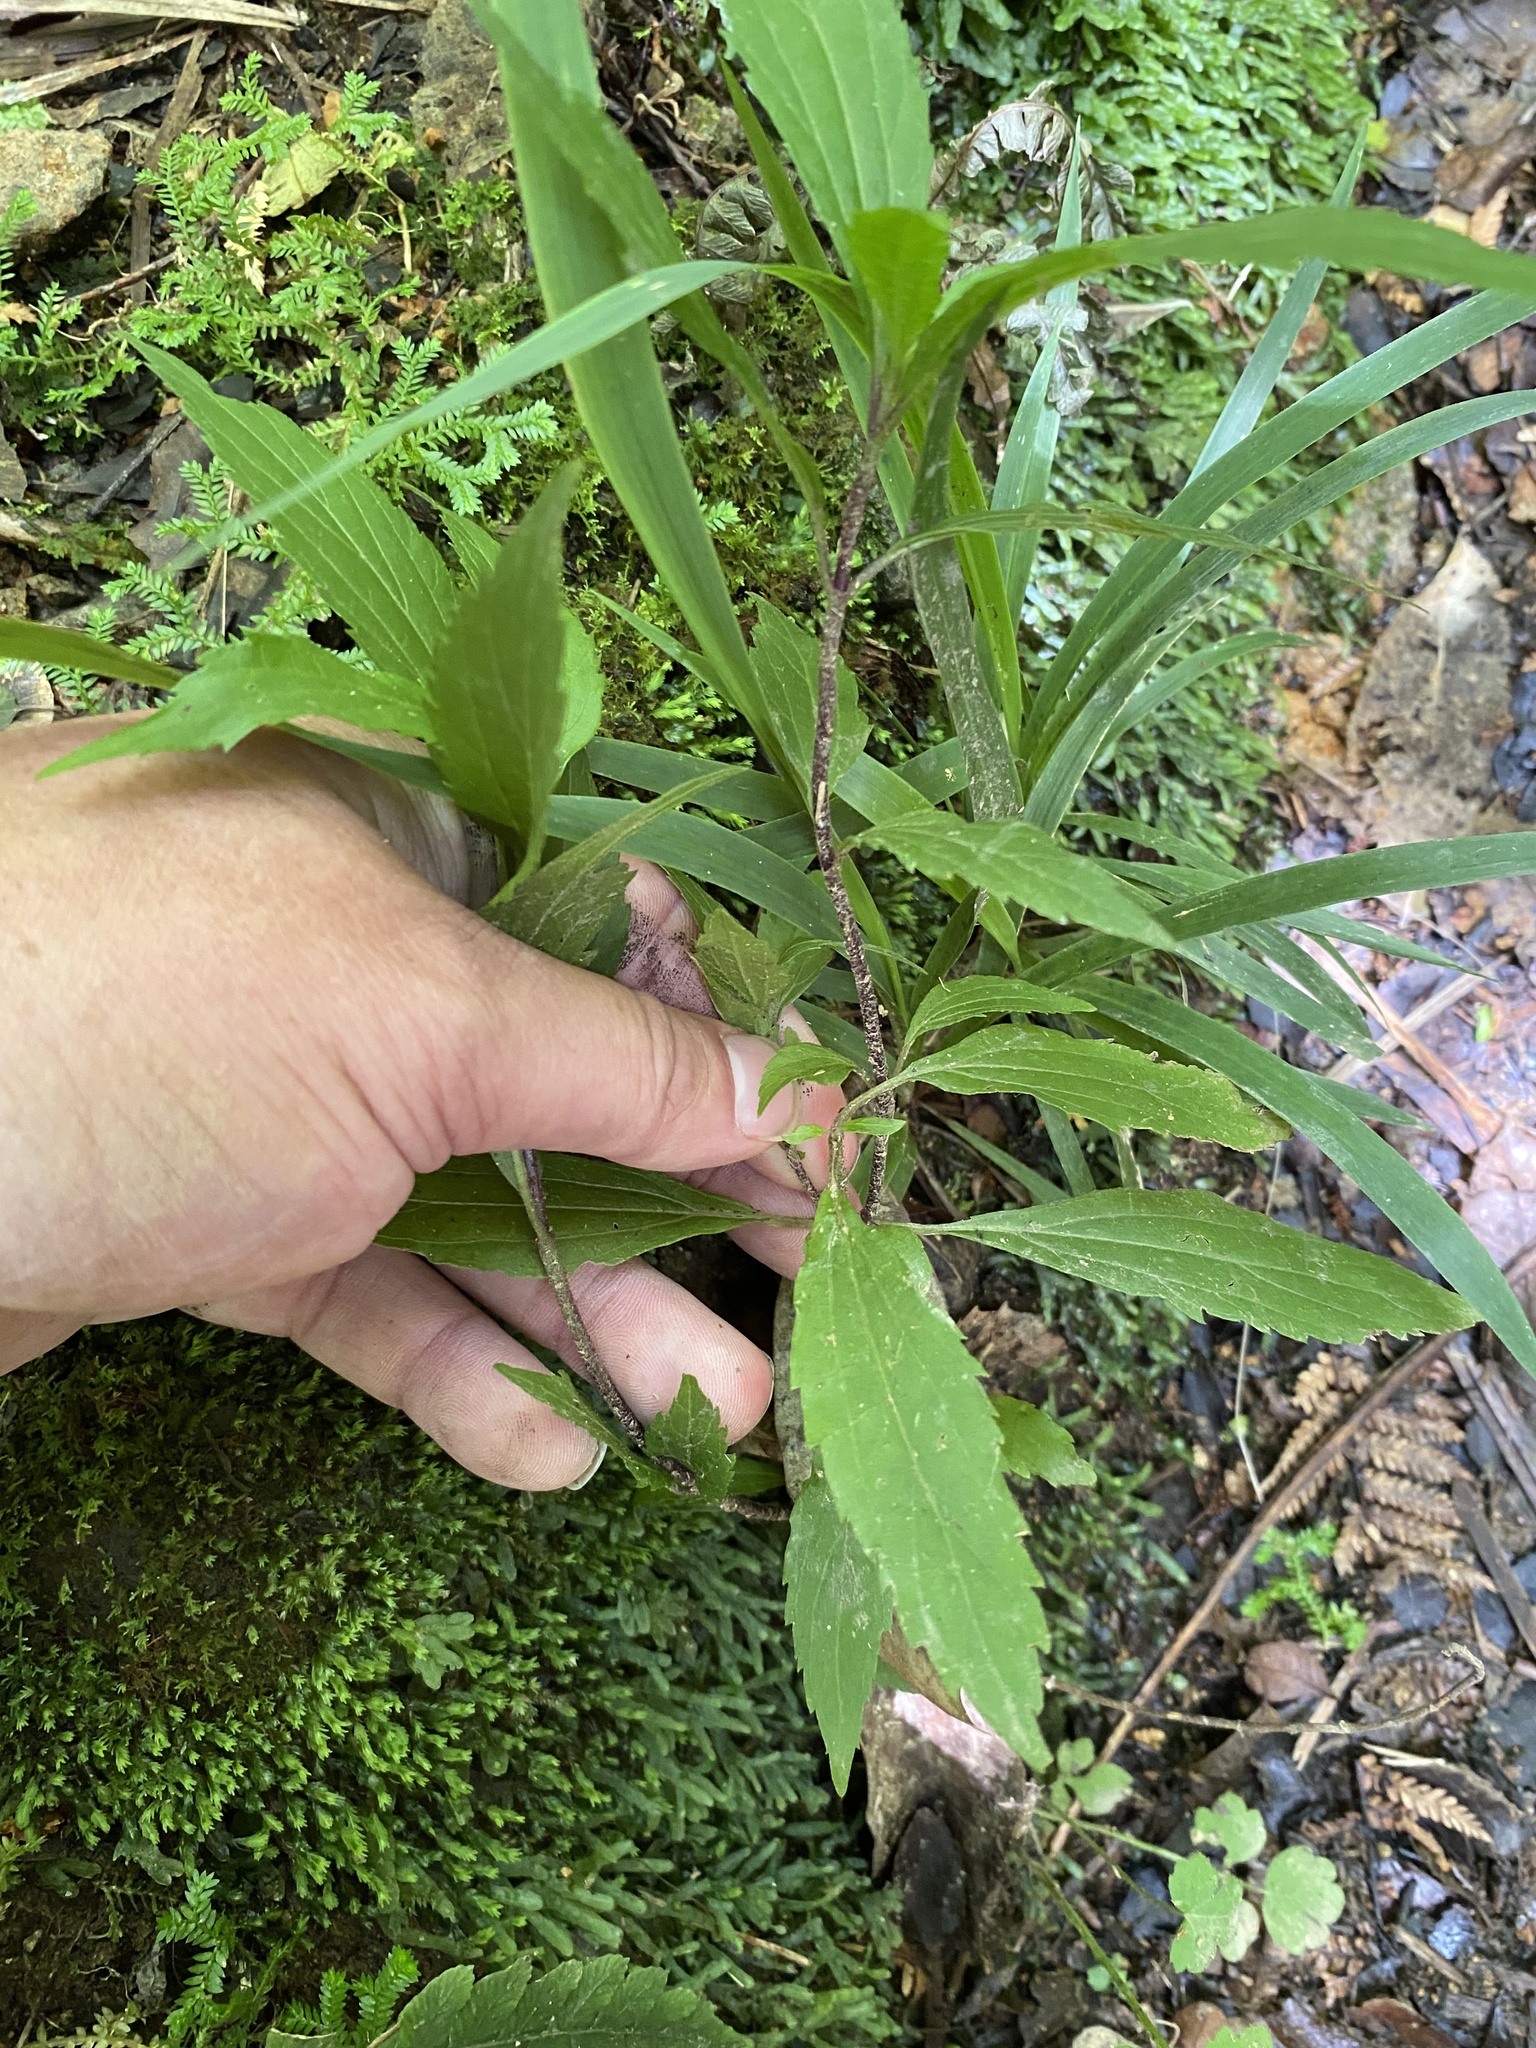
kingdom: Plantae
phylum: Tracheophyta
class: Magnoliopsida
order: Asterales
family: Asteraceae
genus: Ageratina
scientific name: Ageratina riparia
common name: Creeping croftonweed
